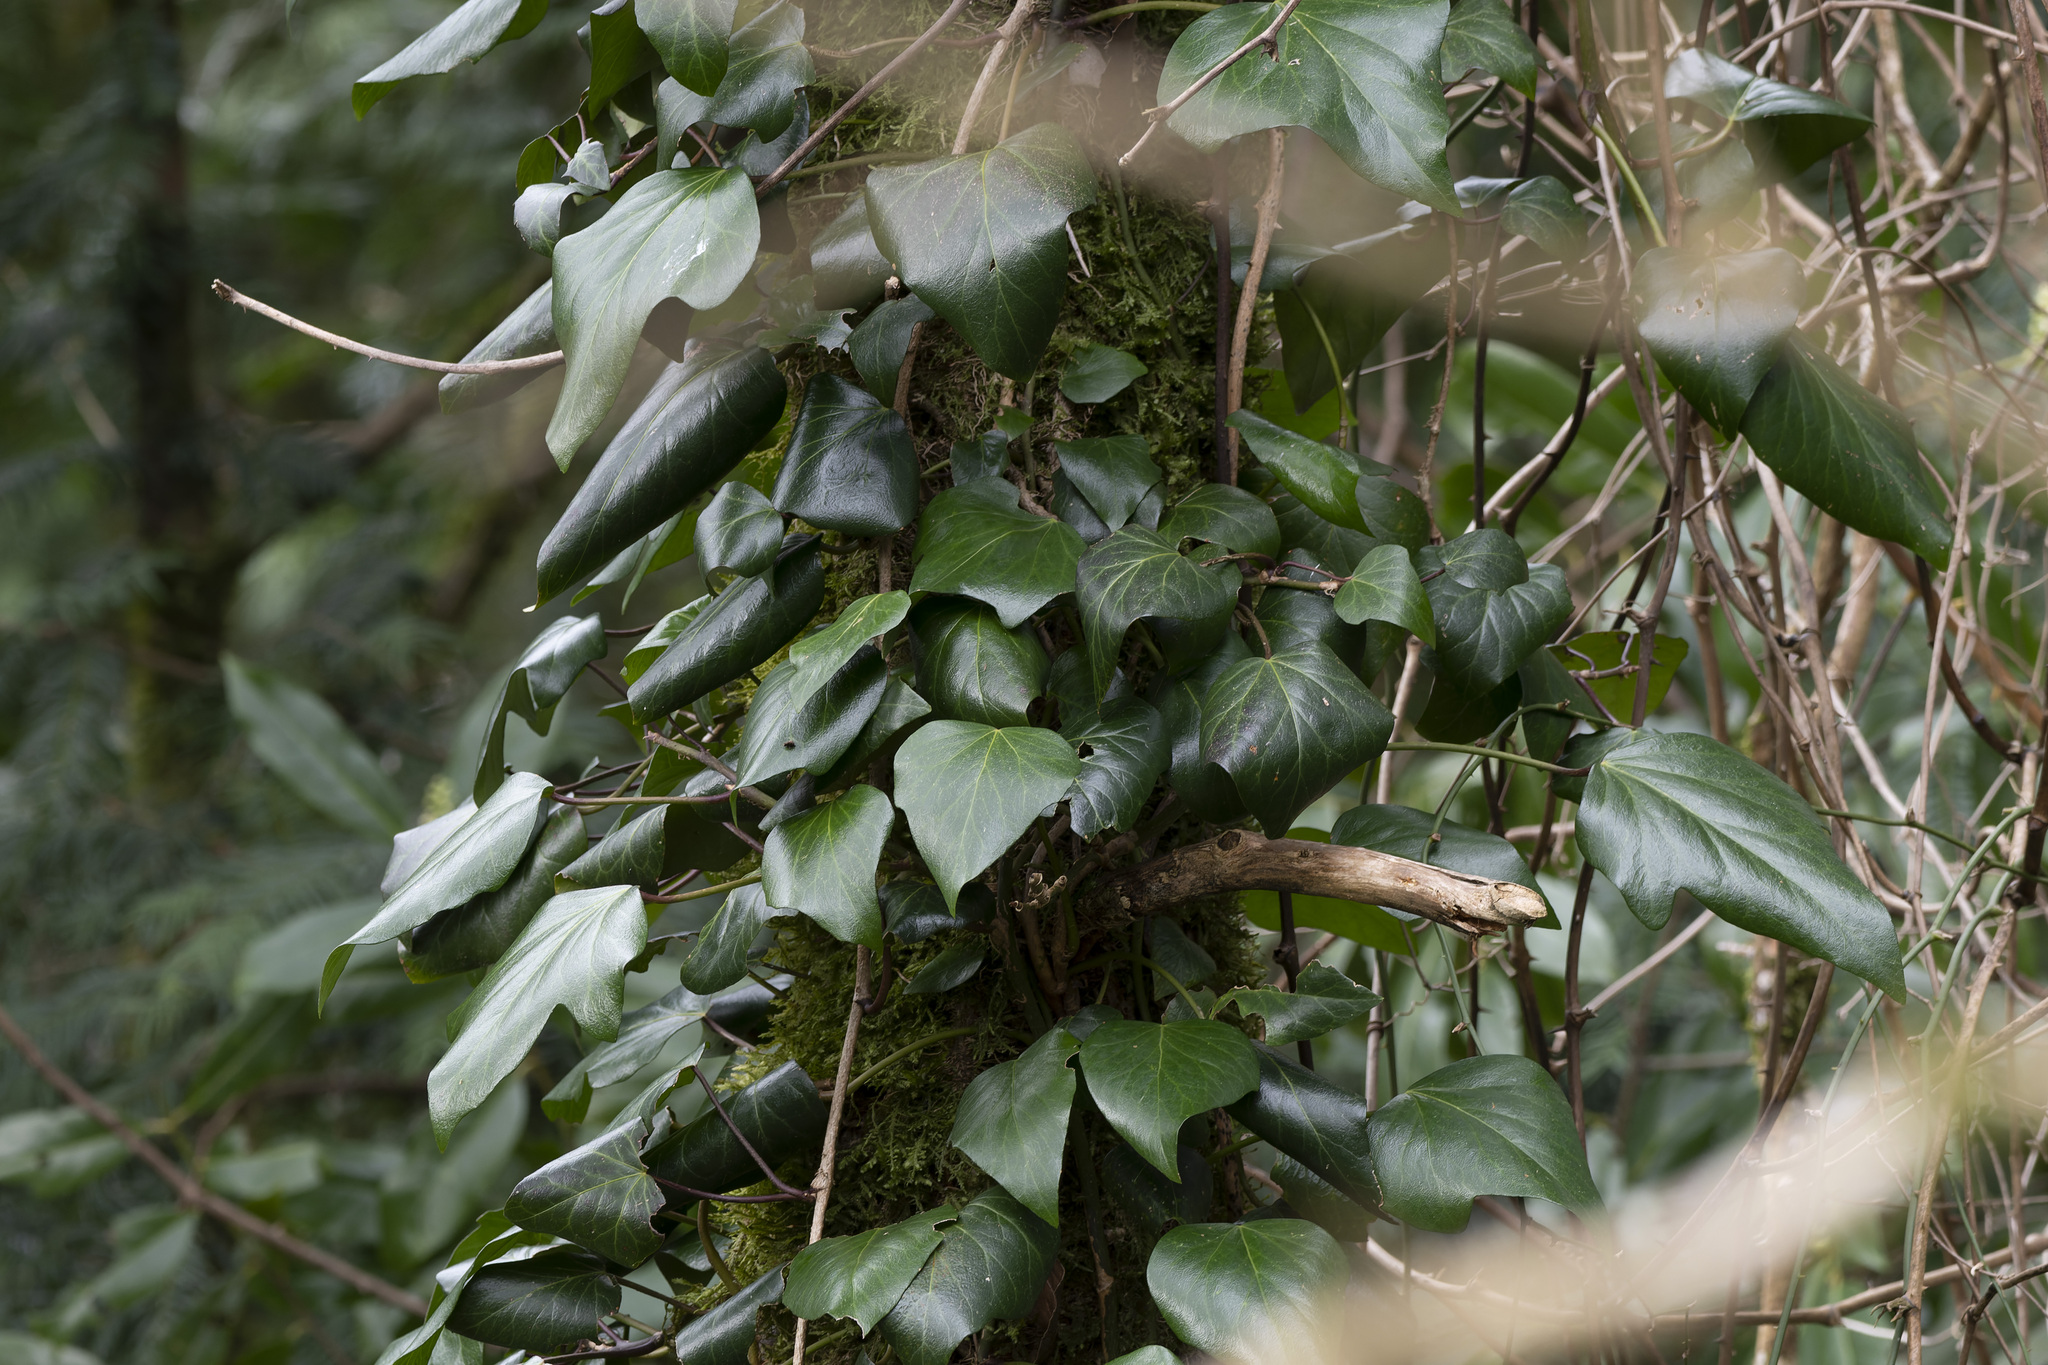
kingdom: Plantae
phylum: Tracheophyta
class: Magnoliopsida
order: Apiales
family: Araliaceae
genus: Hedera
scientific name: Hedera colchica
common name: Persian ivy
